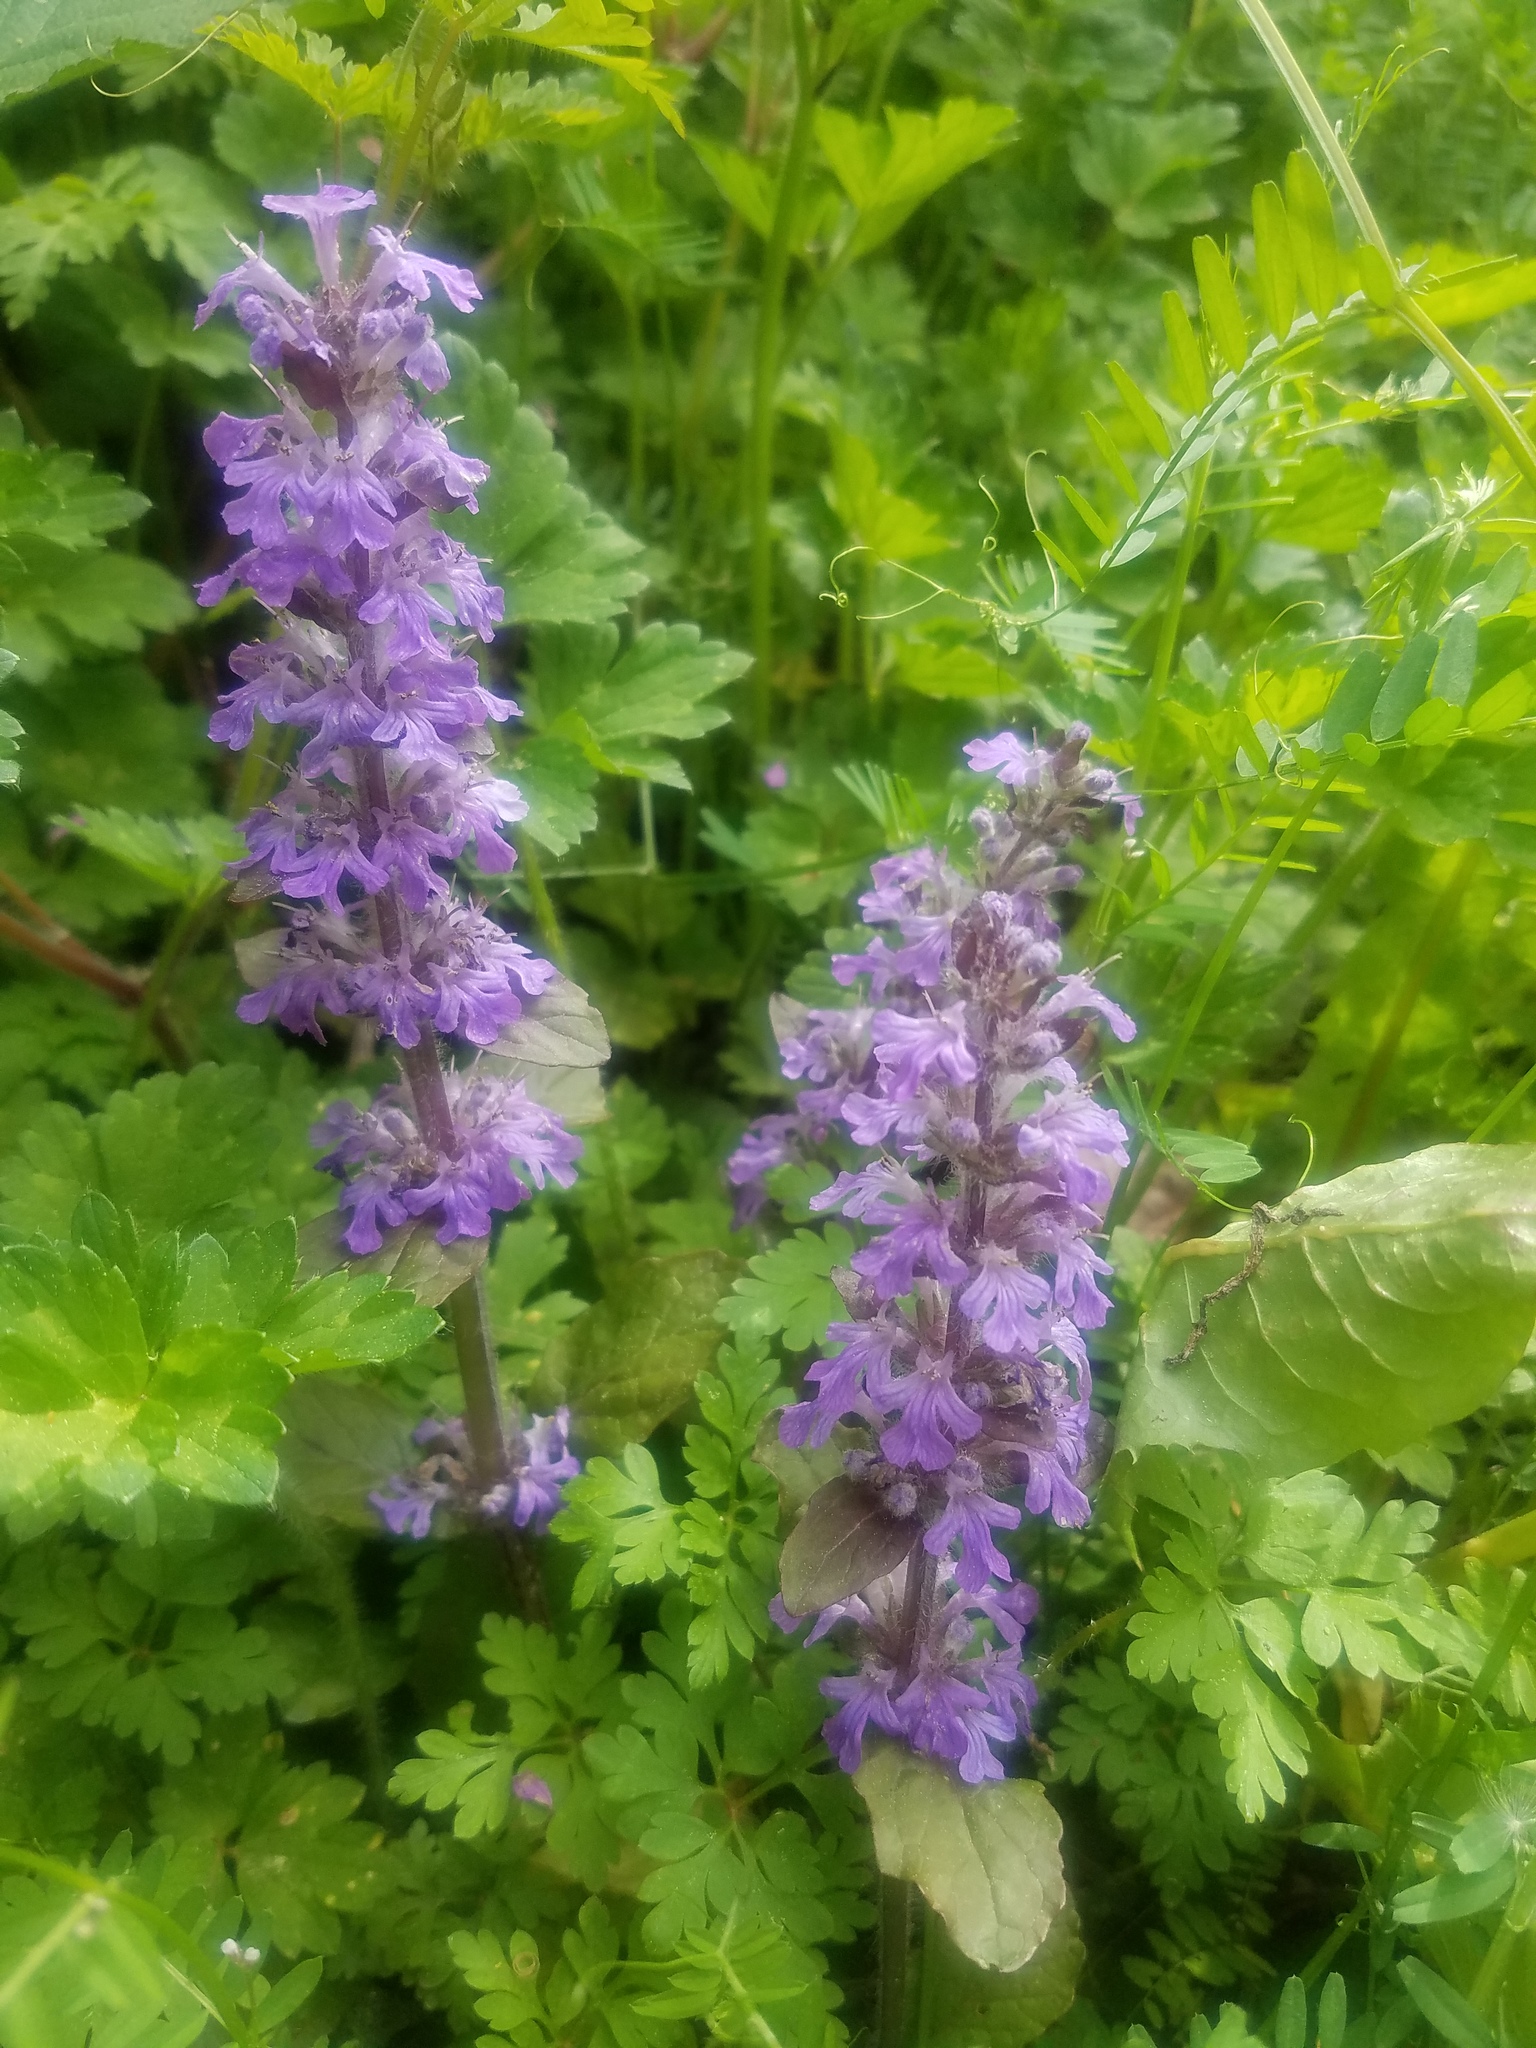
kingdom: Plantae
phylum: Tracheophyta
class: Magnoliopsida
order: Lamiales
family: Lamiaceae
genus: Ajuga
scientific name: Ajuga reptans
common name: Bugle
